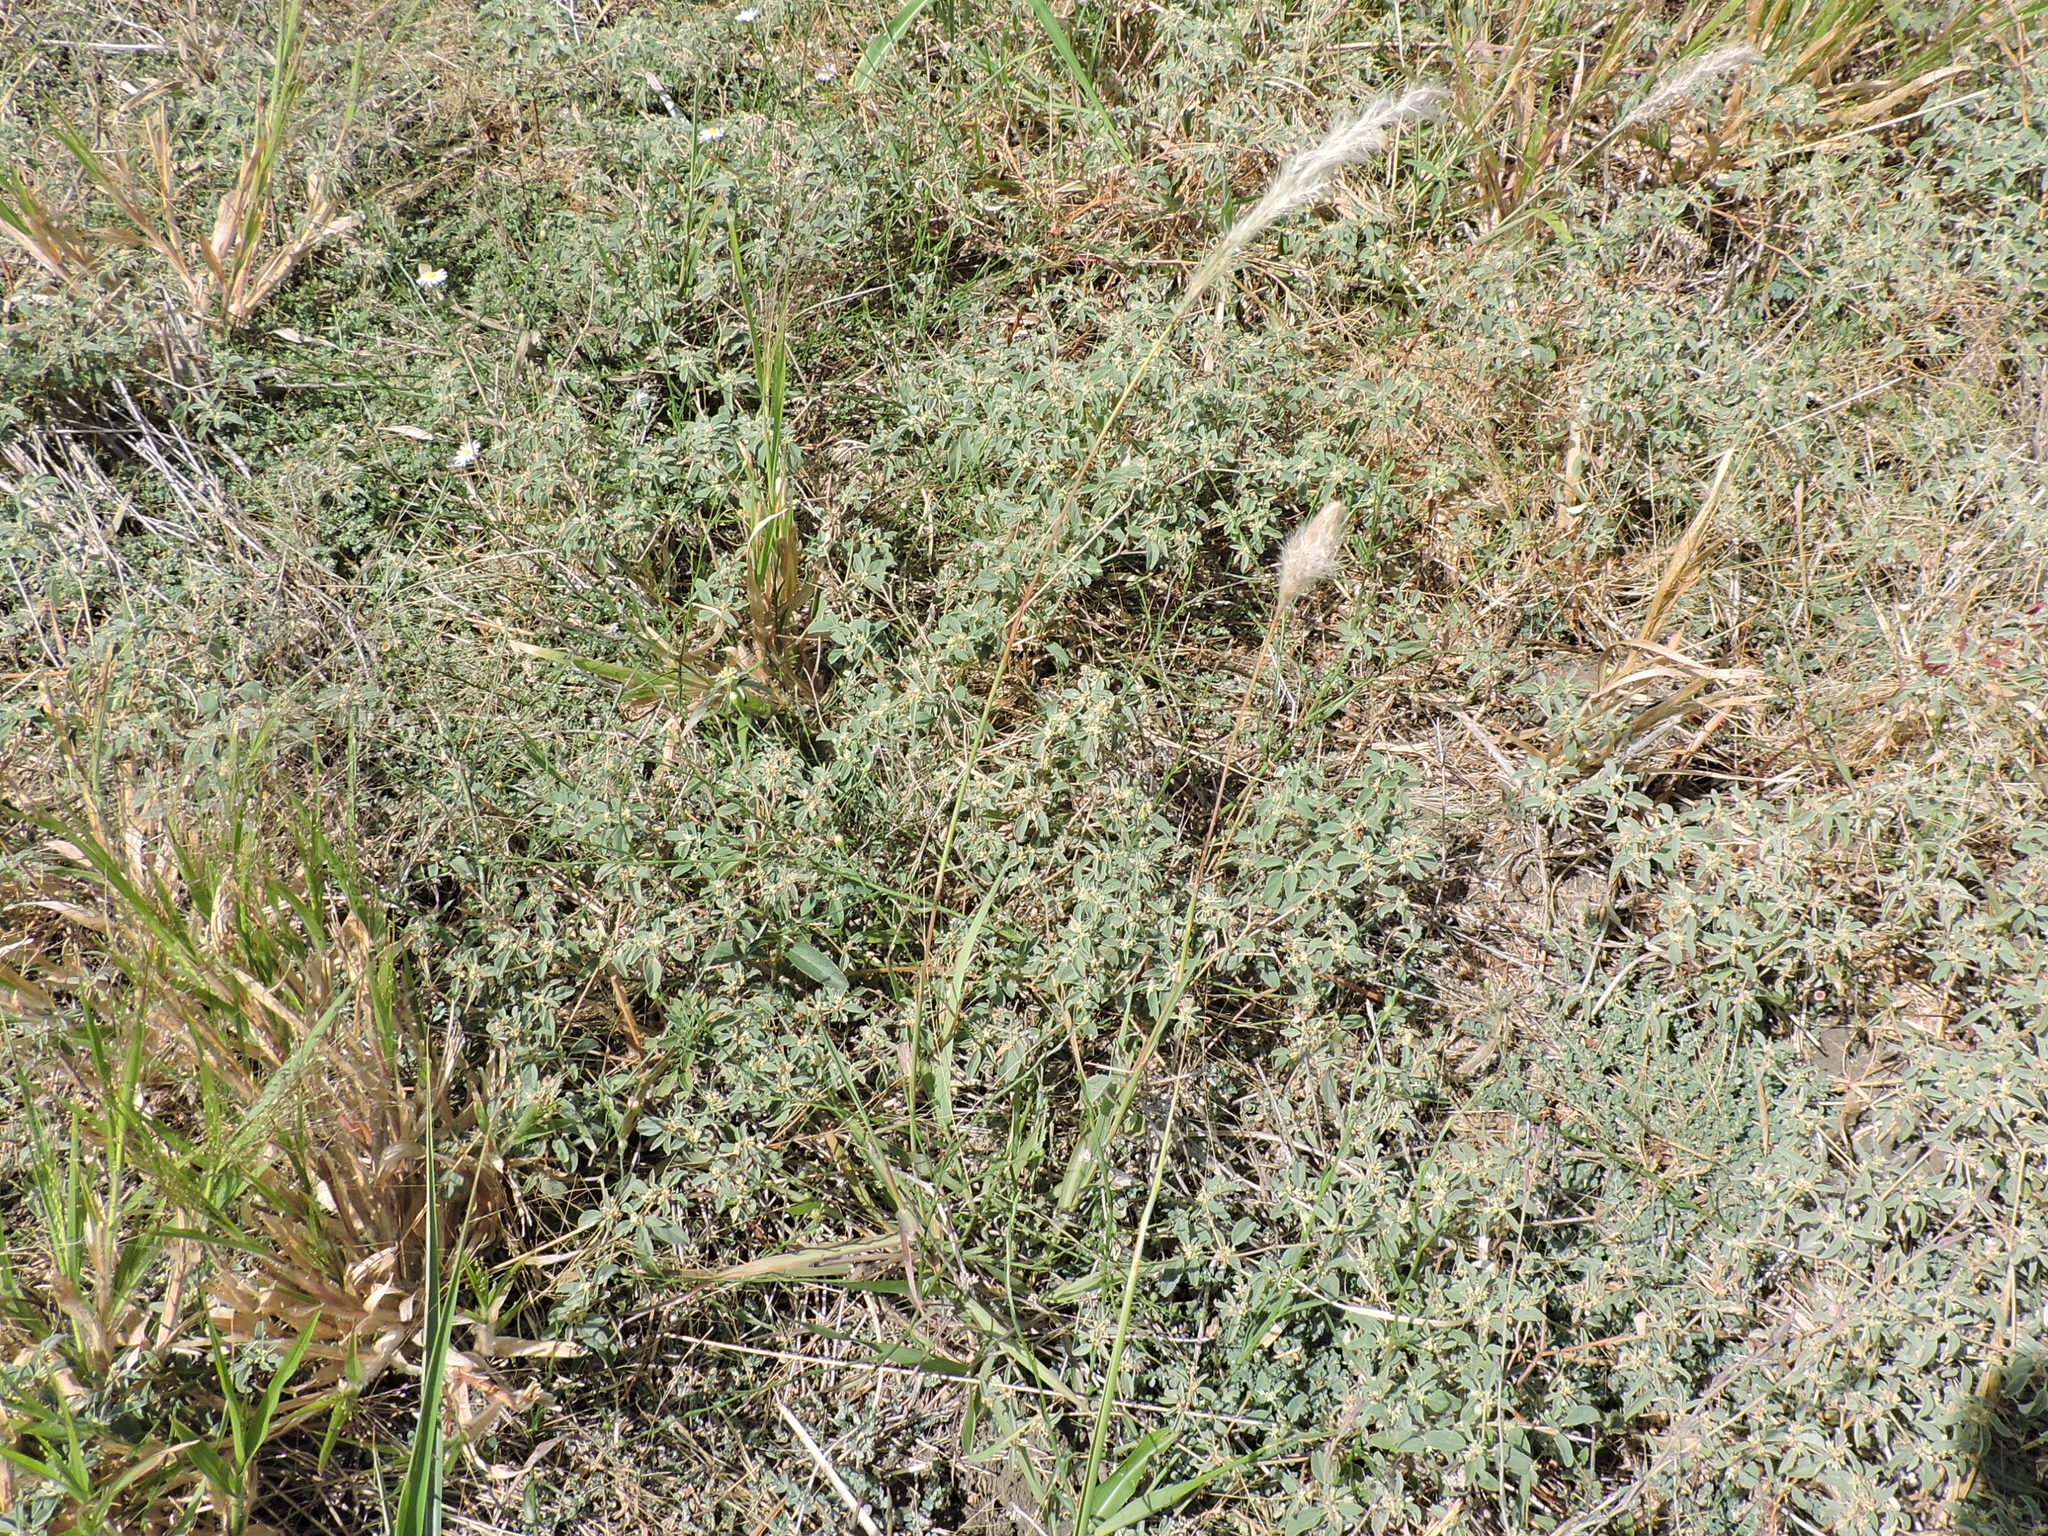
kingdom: Plantae
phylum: Tracheophyta
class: Liliopsida
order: Poales
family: Poaceae
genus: Bothriochloa
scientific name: Bothriochloa torreyana
